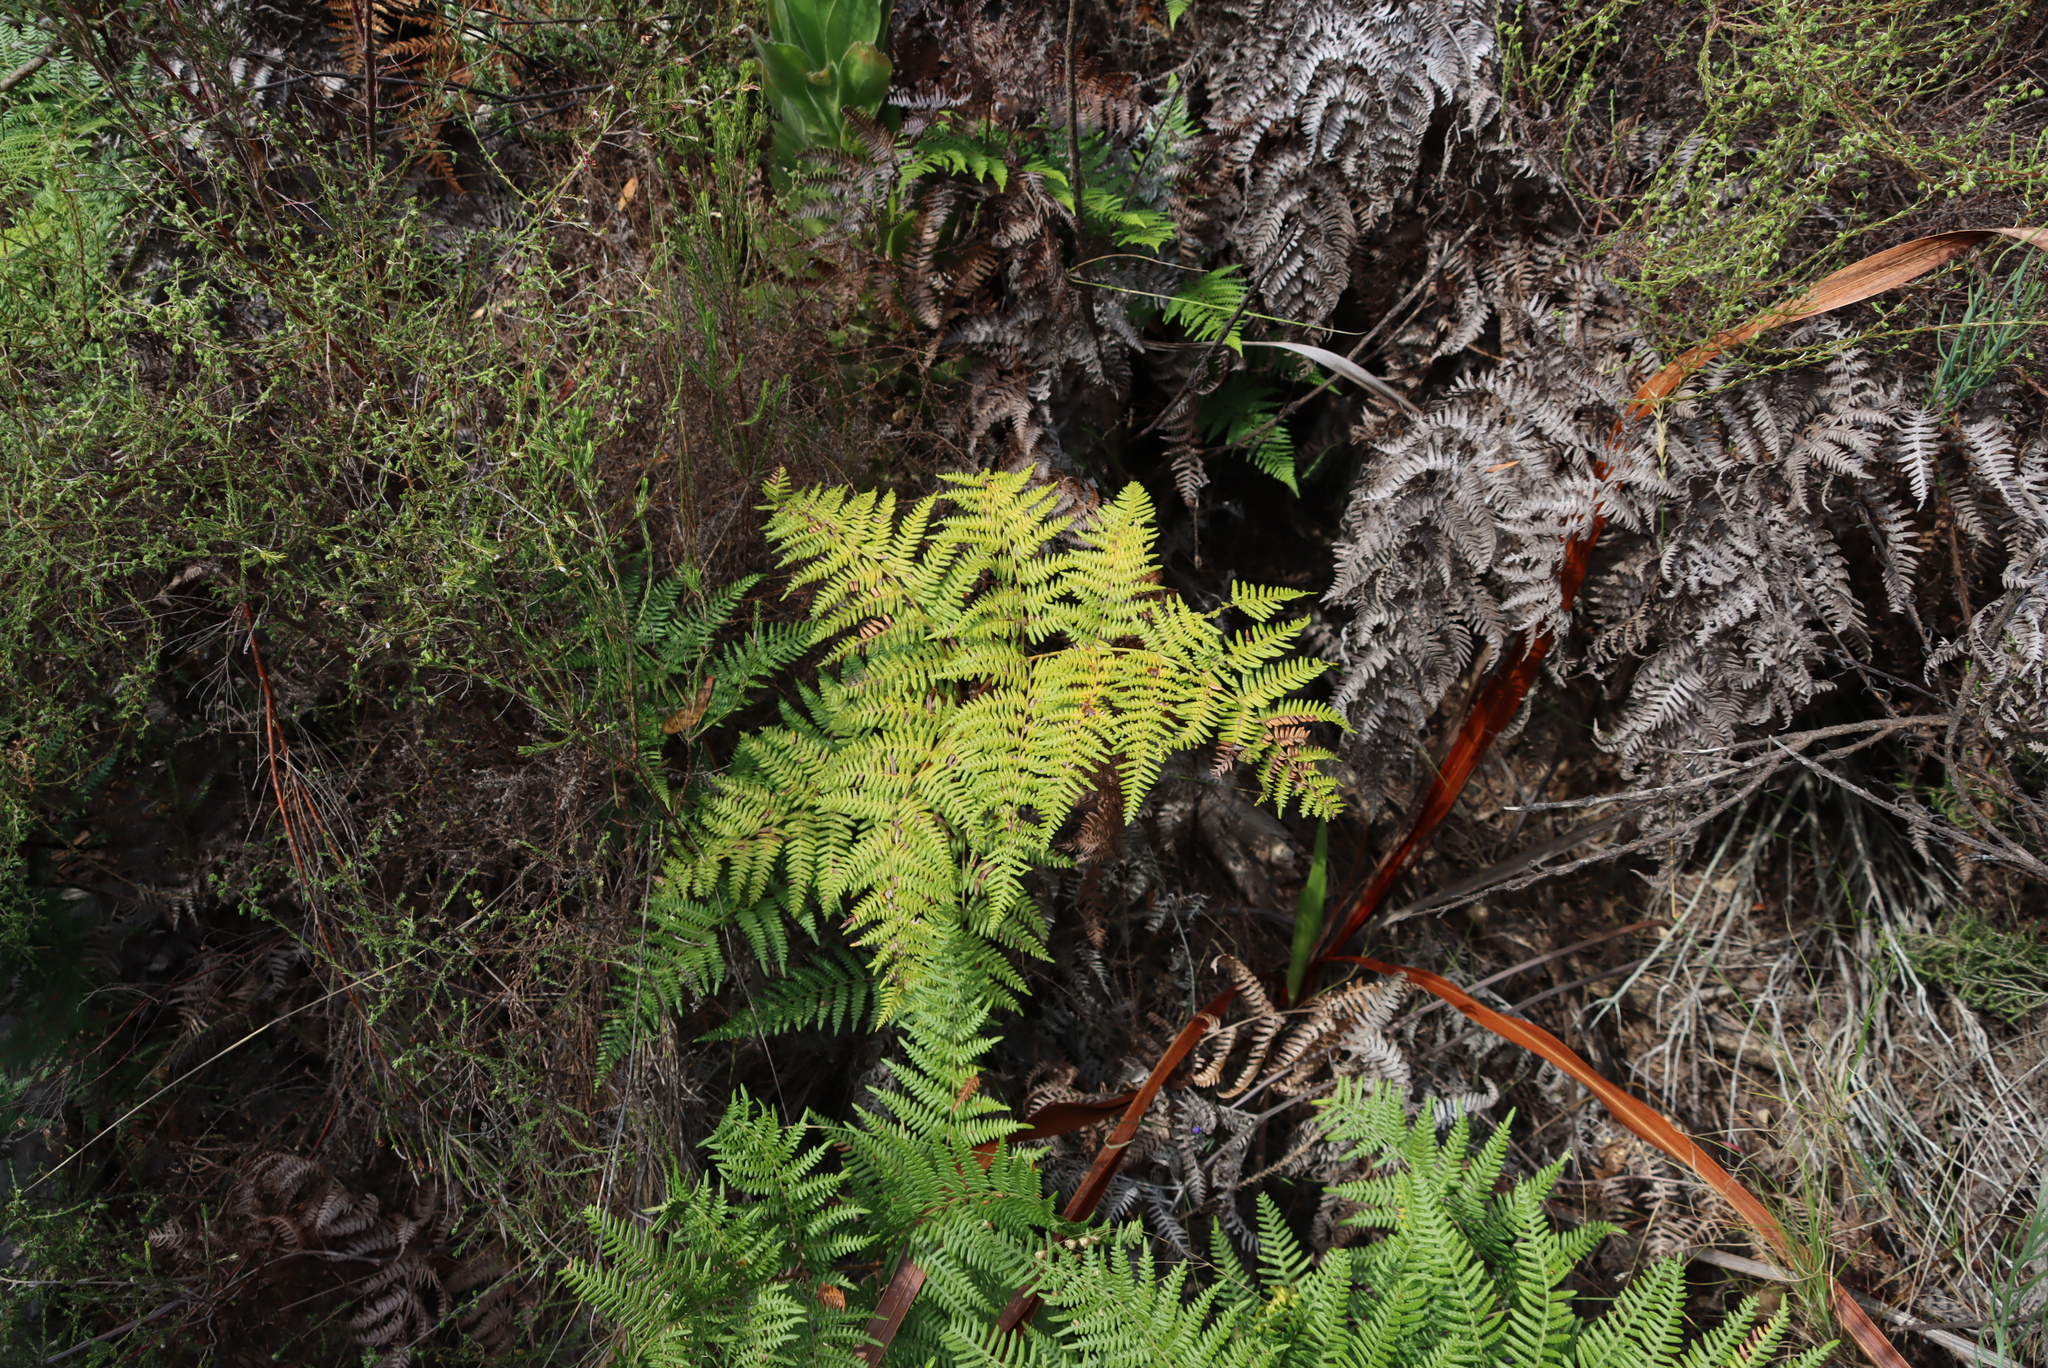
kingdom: Plantae
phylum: Tracheophyta
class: Polypodiopsida
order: Polypodiales
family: Dennstaedtiaceae
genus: Pteridium
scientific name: Pteridium aquilinum
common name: Bracken
